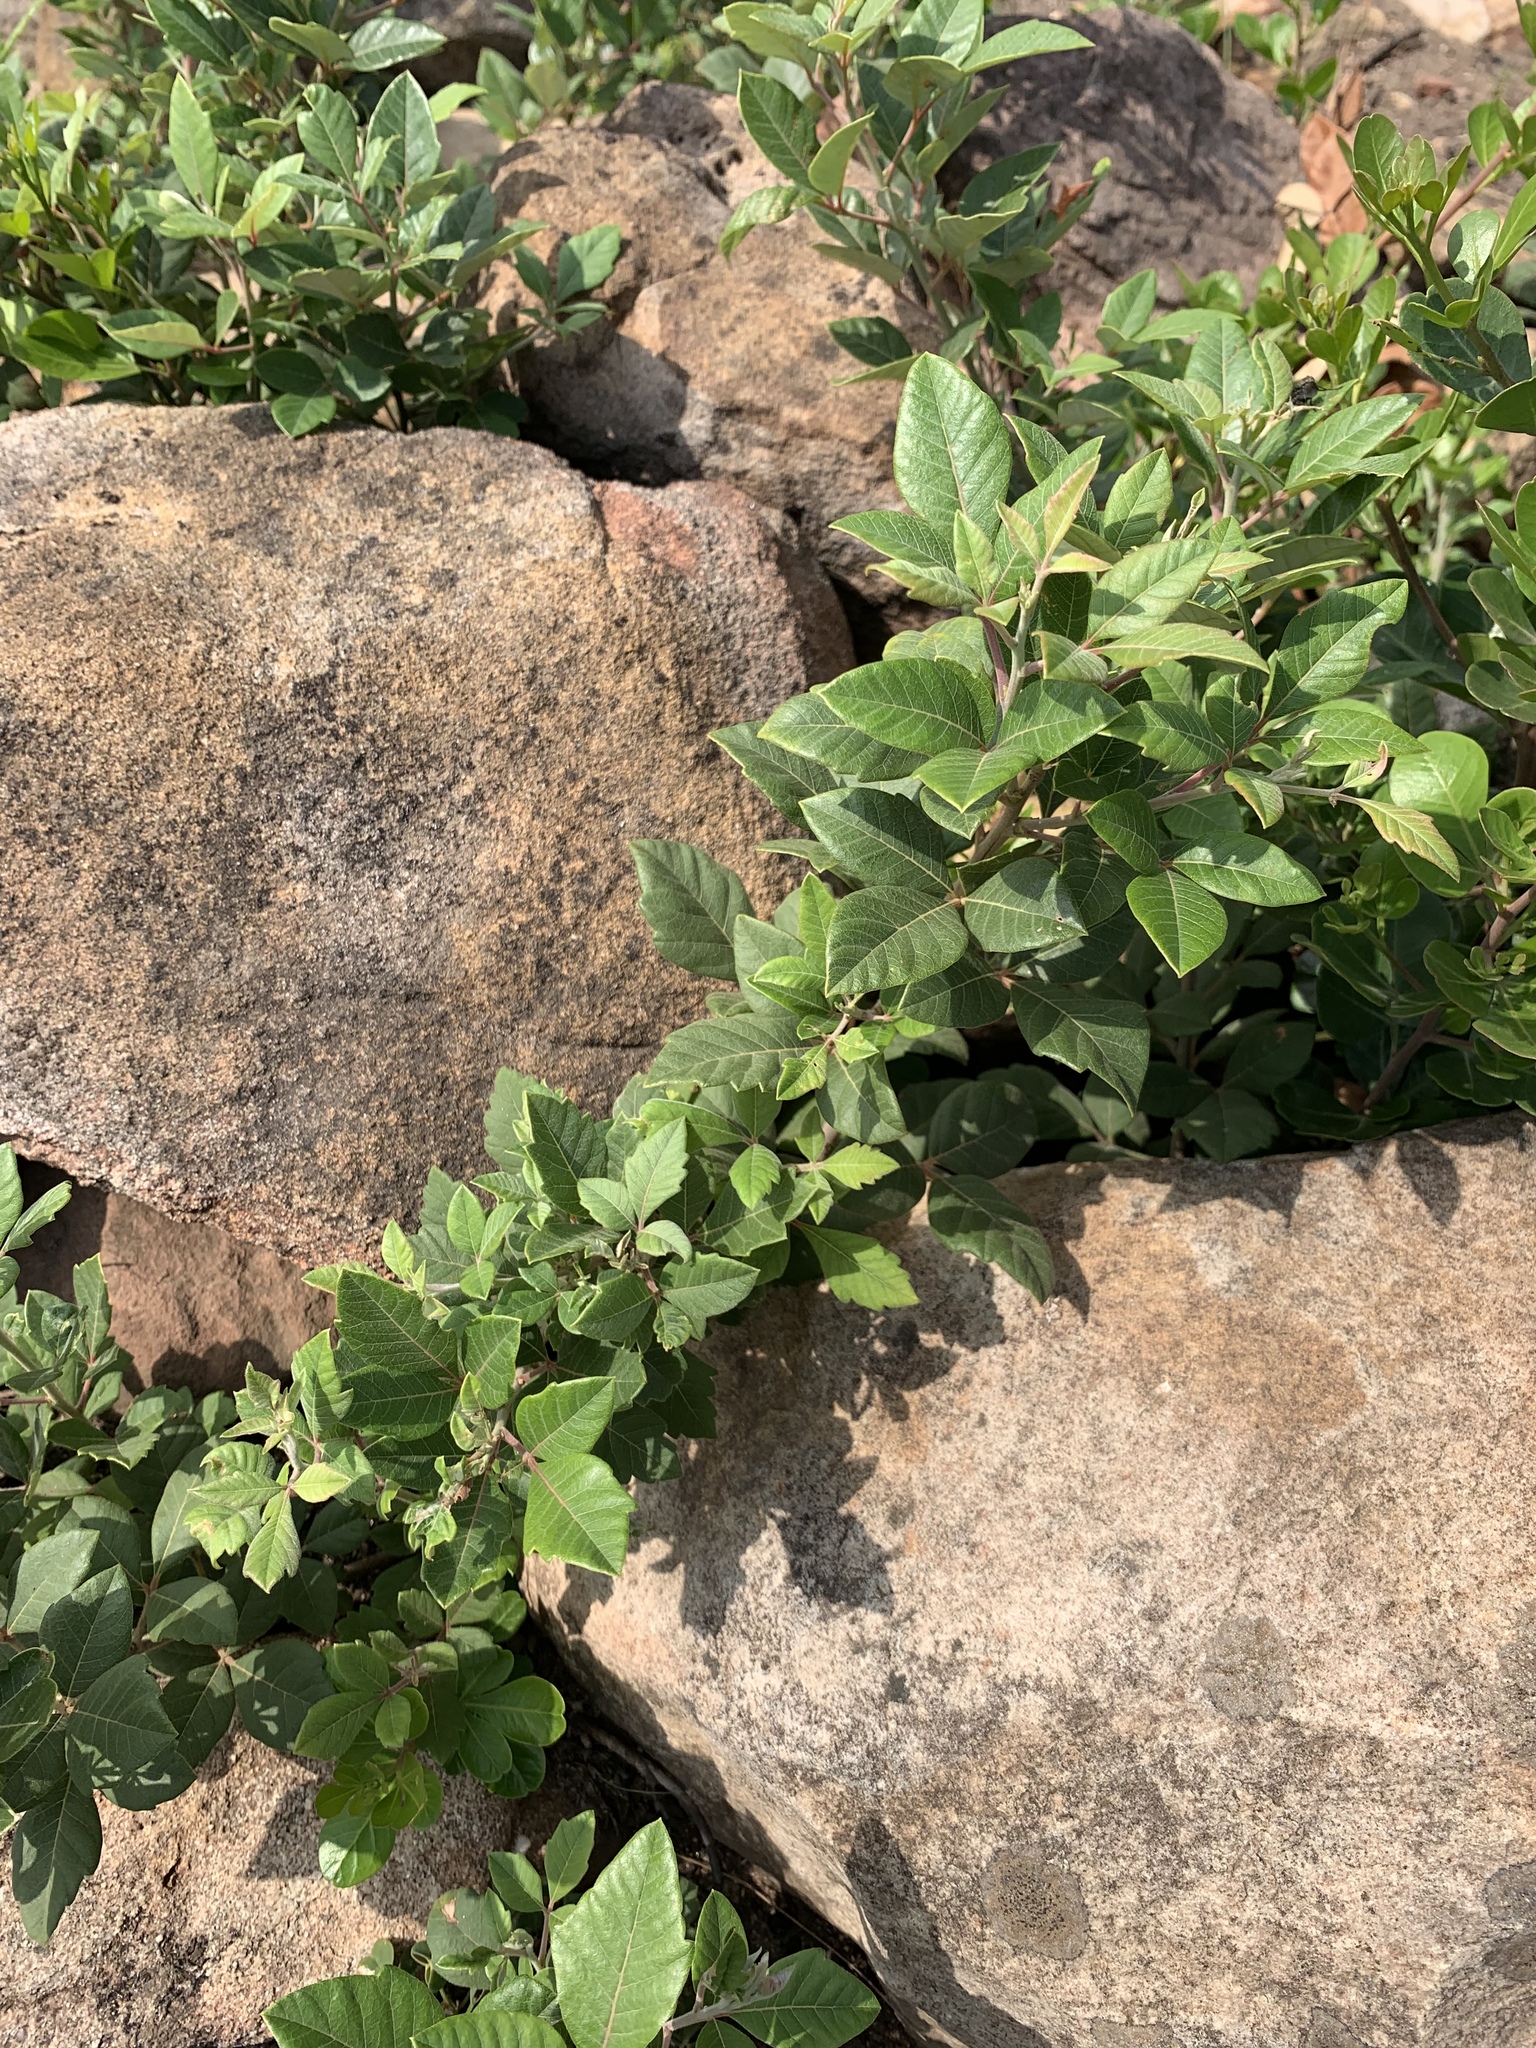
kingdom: Plantae
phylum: Tracheophyta
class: Magnoliopsida
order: Sapindales
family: Anacardiaceae
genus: Searsia
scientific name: Searsia tomentosa
